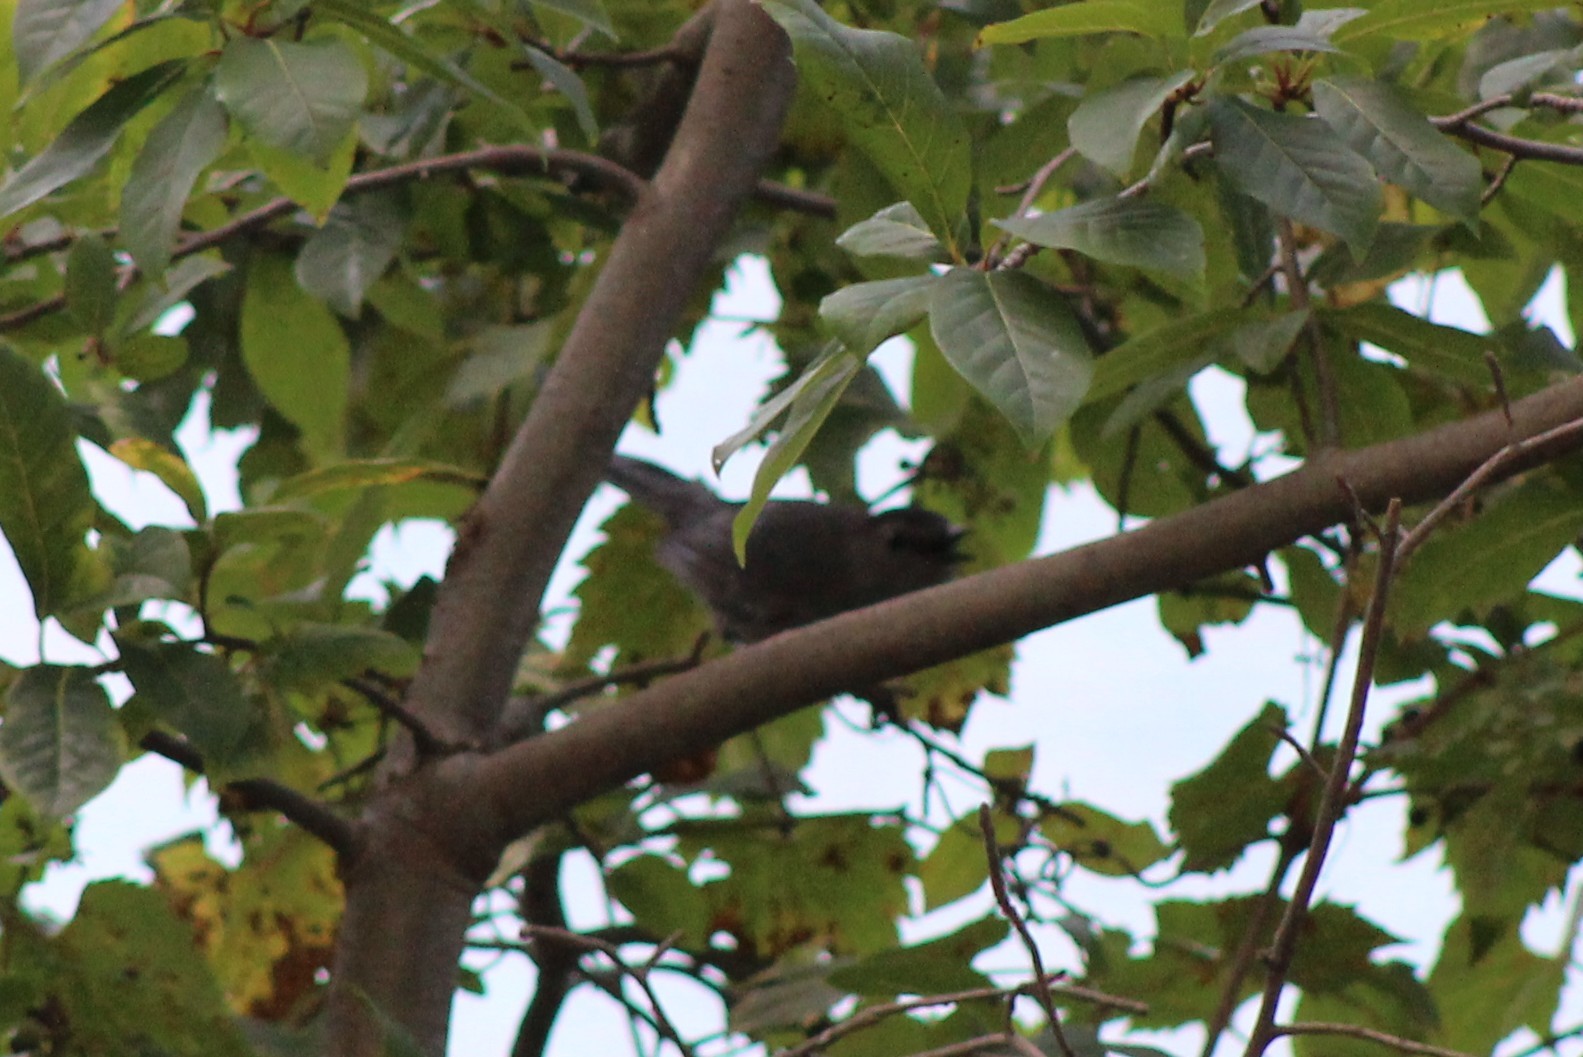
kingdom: Animalia
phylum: Chordata
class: Aves
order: Passeriformes
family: Mimidae
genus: Dumetella
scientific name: Dumetella carolinensis
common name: Gray catbird
